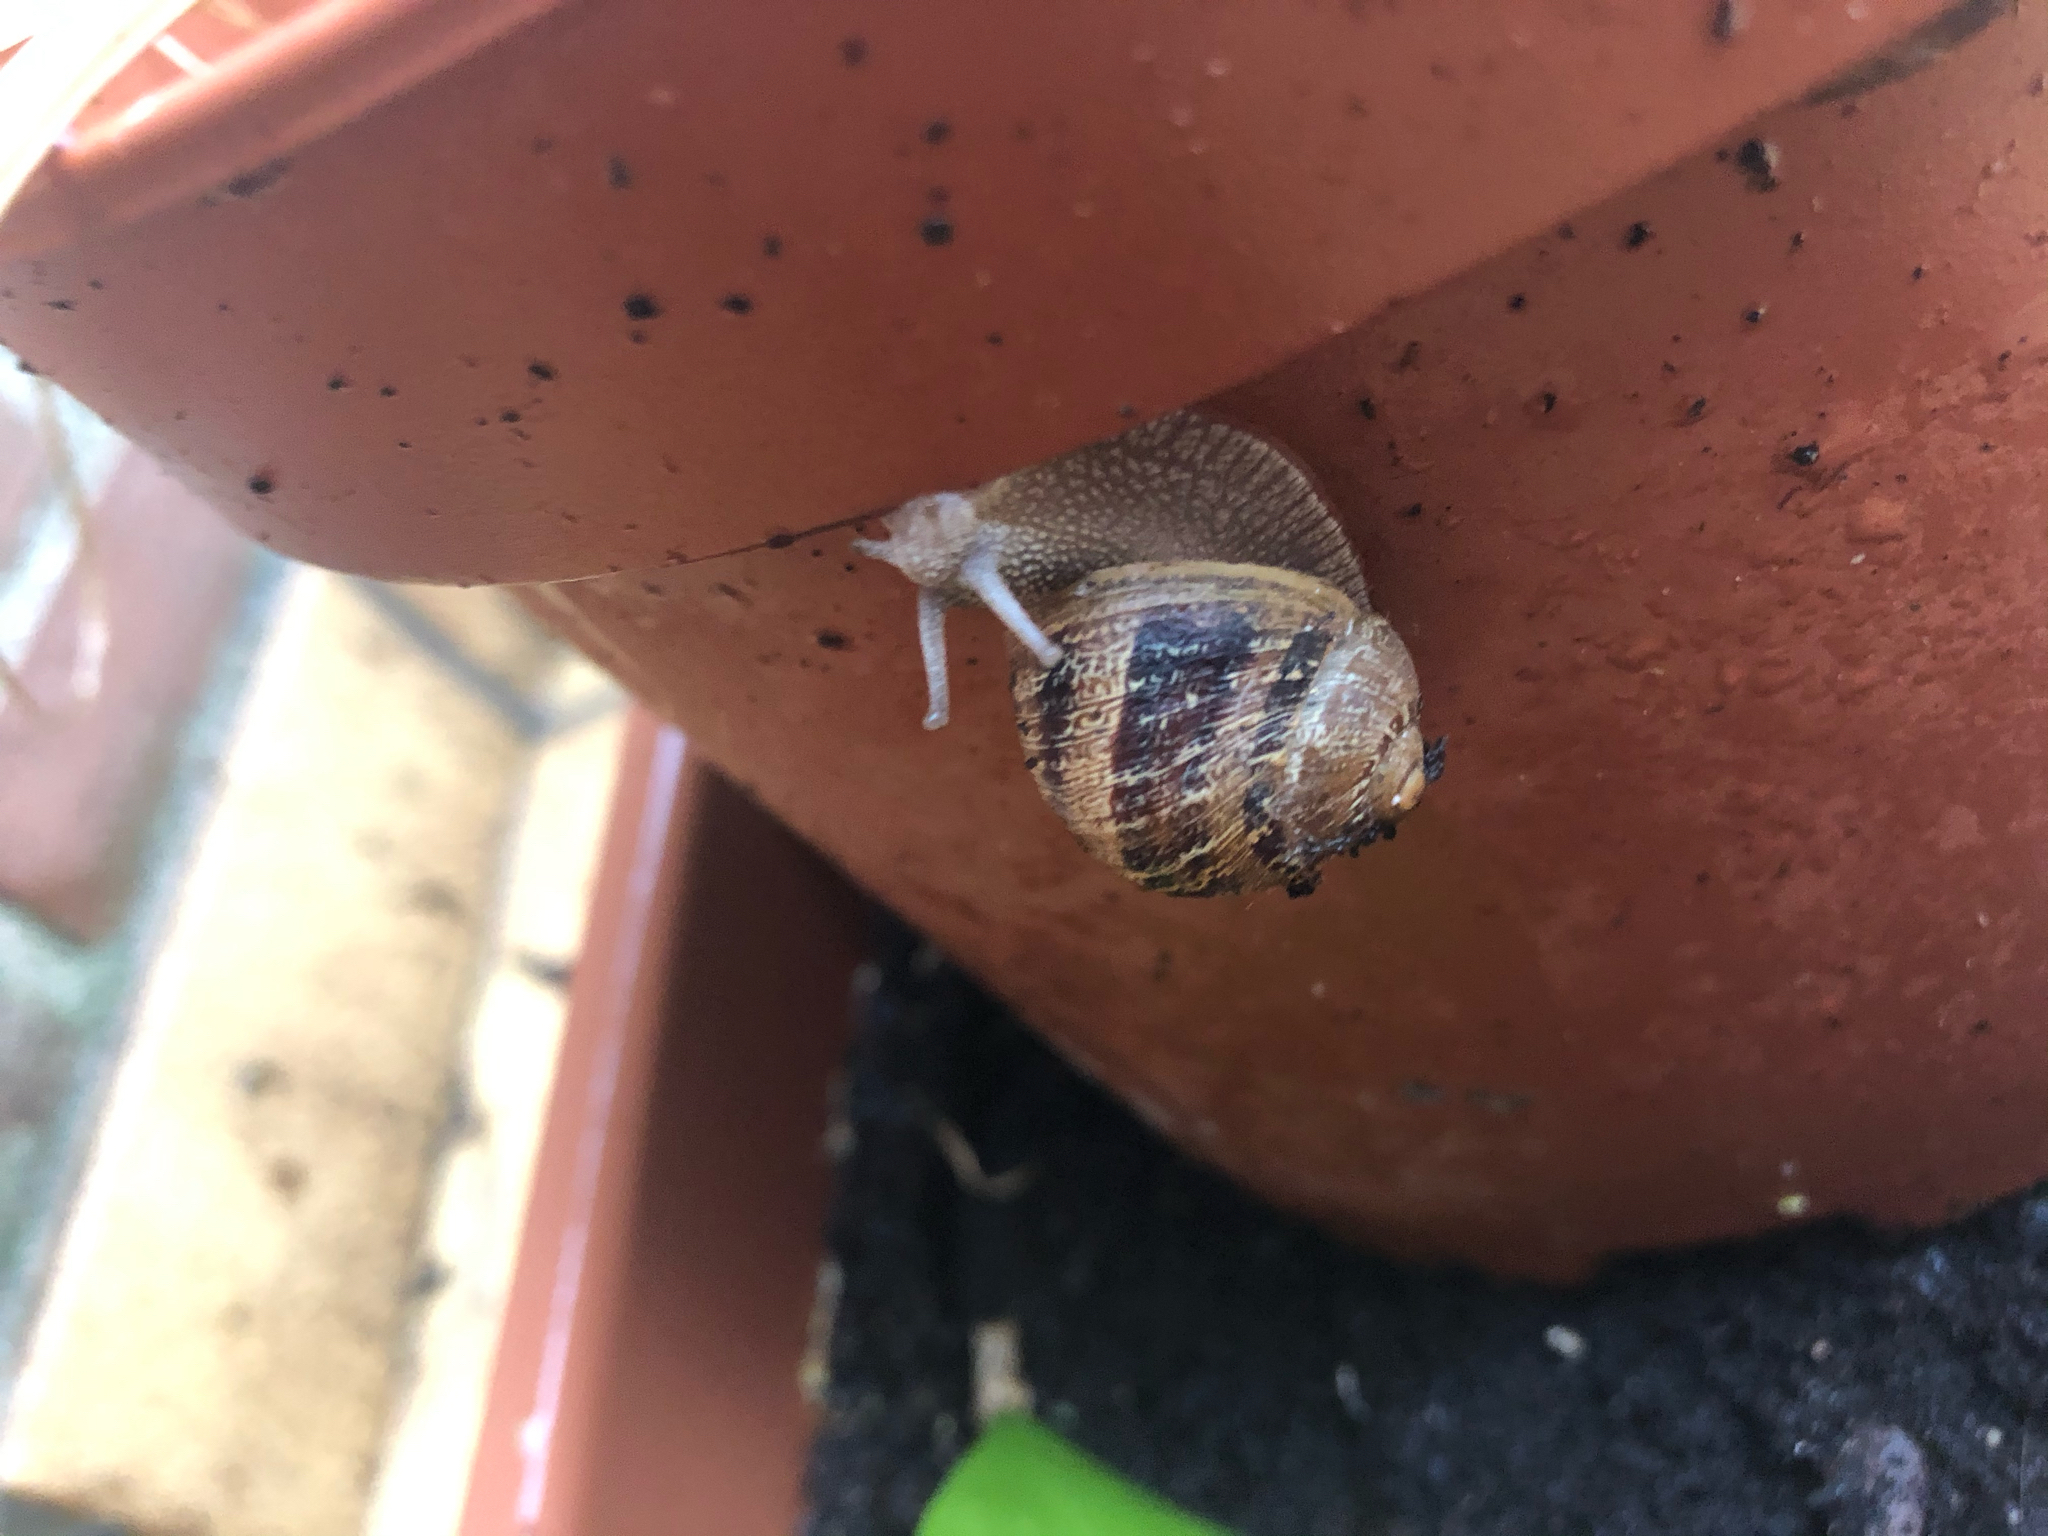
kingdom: Animalia
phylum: Mollusca
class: Gastropoda
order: Stylommatophora
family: Helicidae
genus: Cornu
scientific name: Cornu aspersum
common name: Brown garden snail
